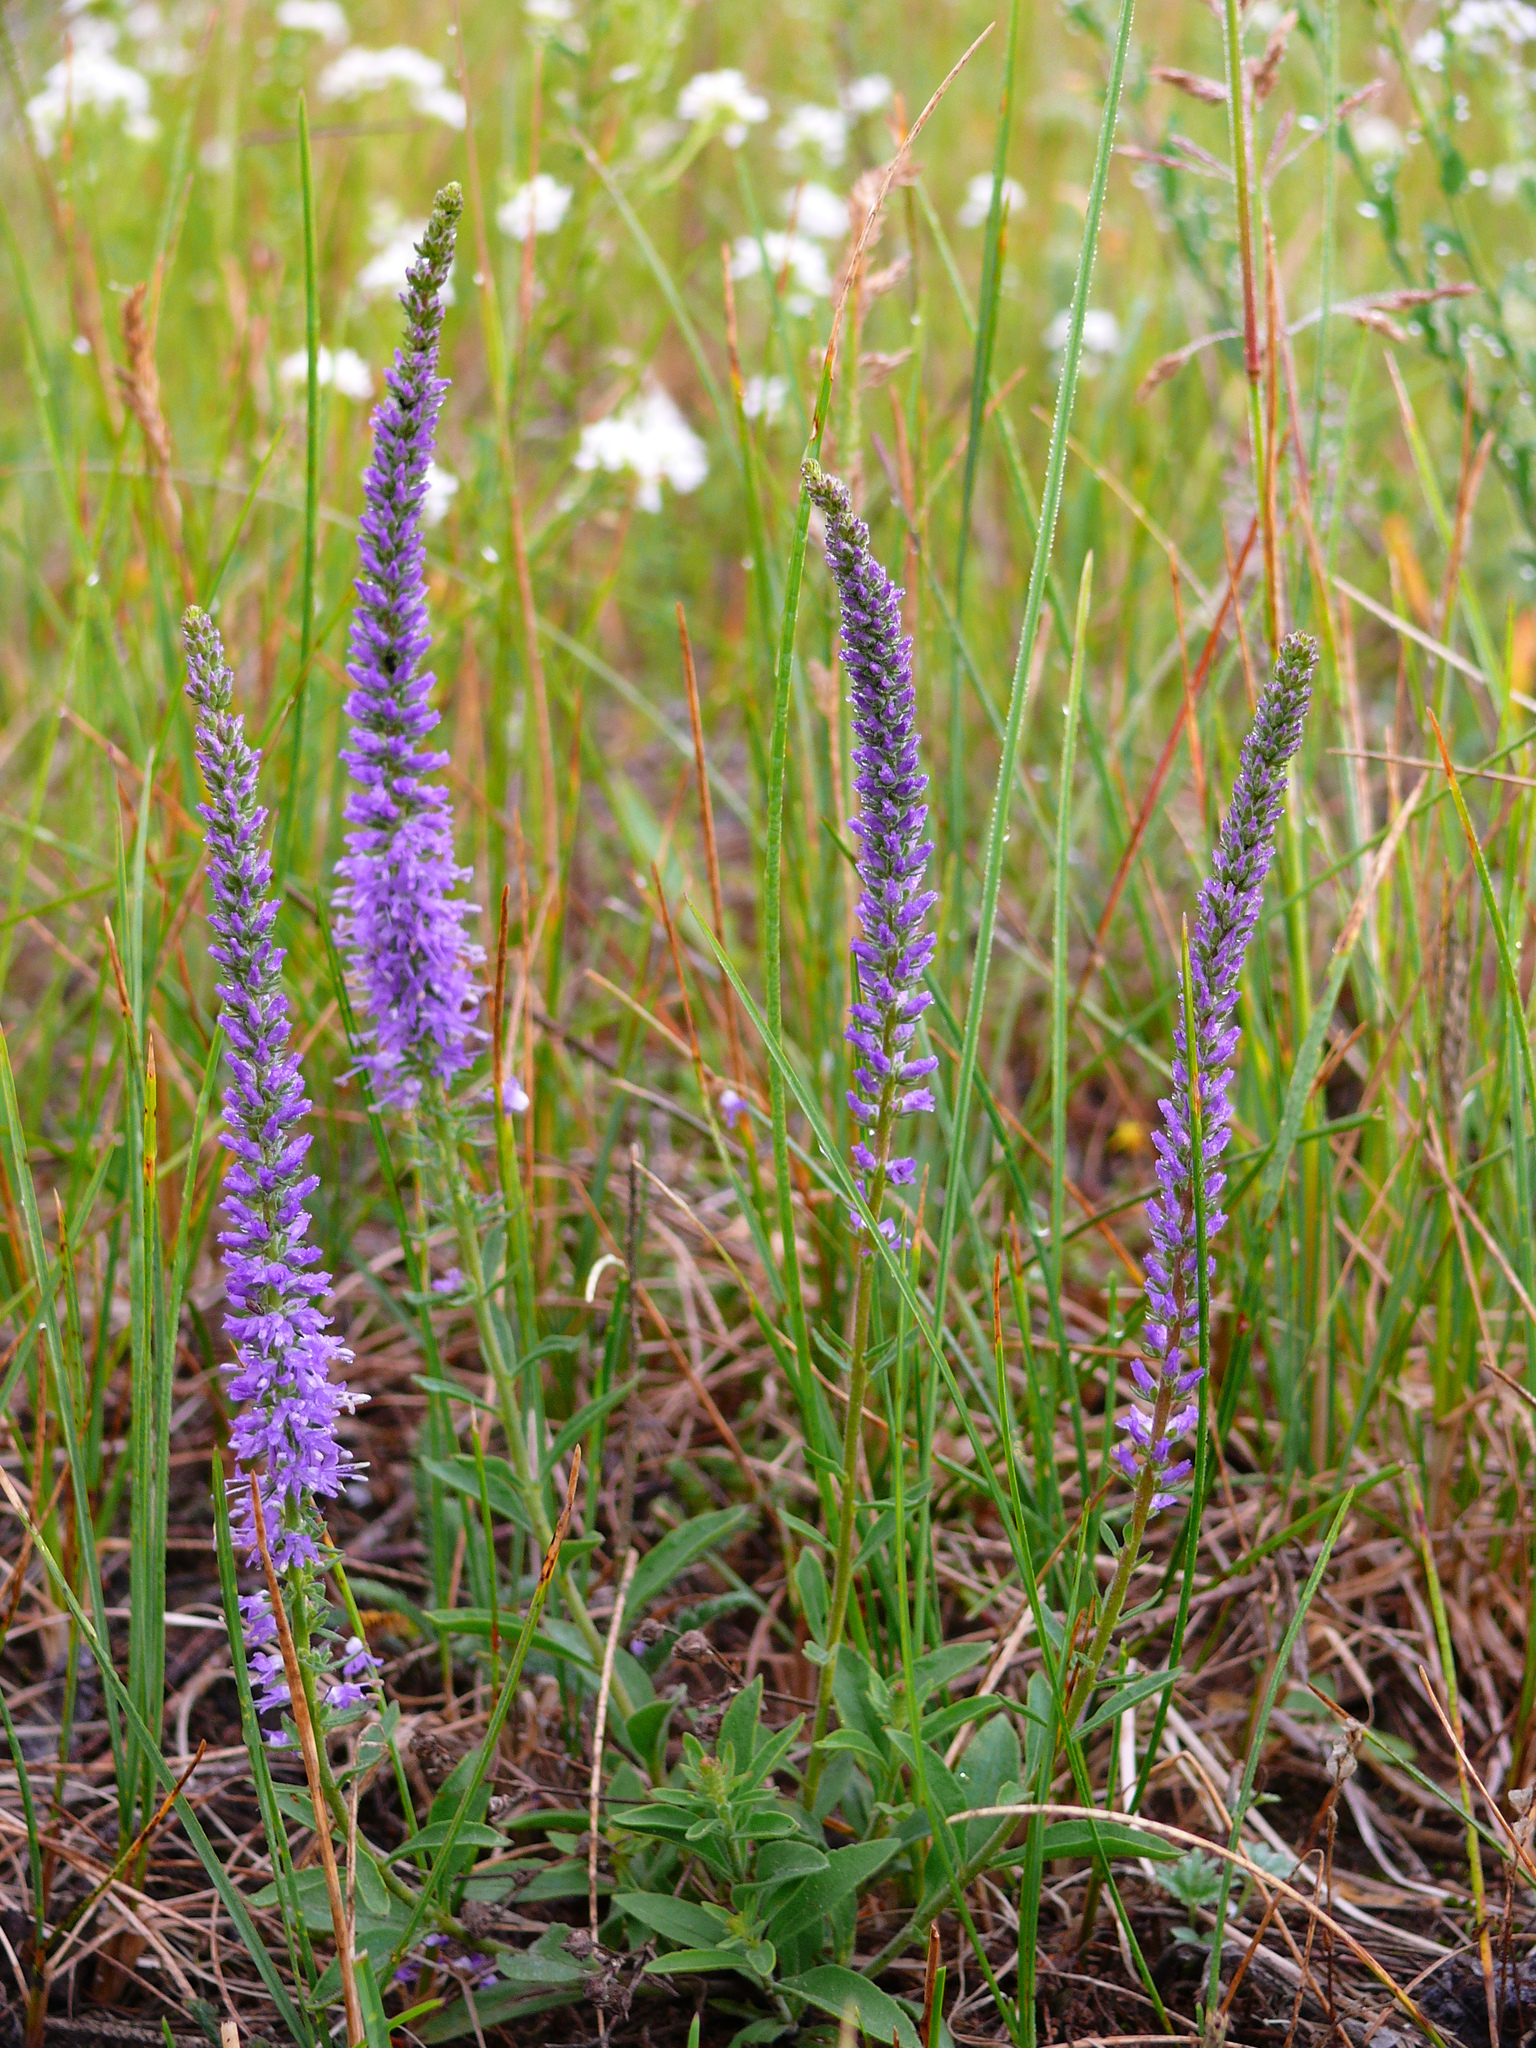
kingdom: Plantae
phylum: Tracheophyta
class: Magnoliopsida
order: Lamiales
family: Plantaginaceae
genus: Veronica
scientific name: Veronica spicata
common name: Spiked speedwell
